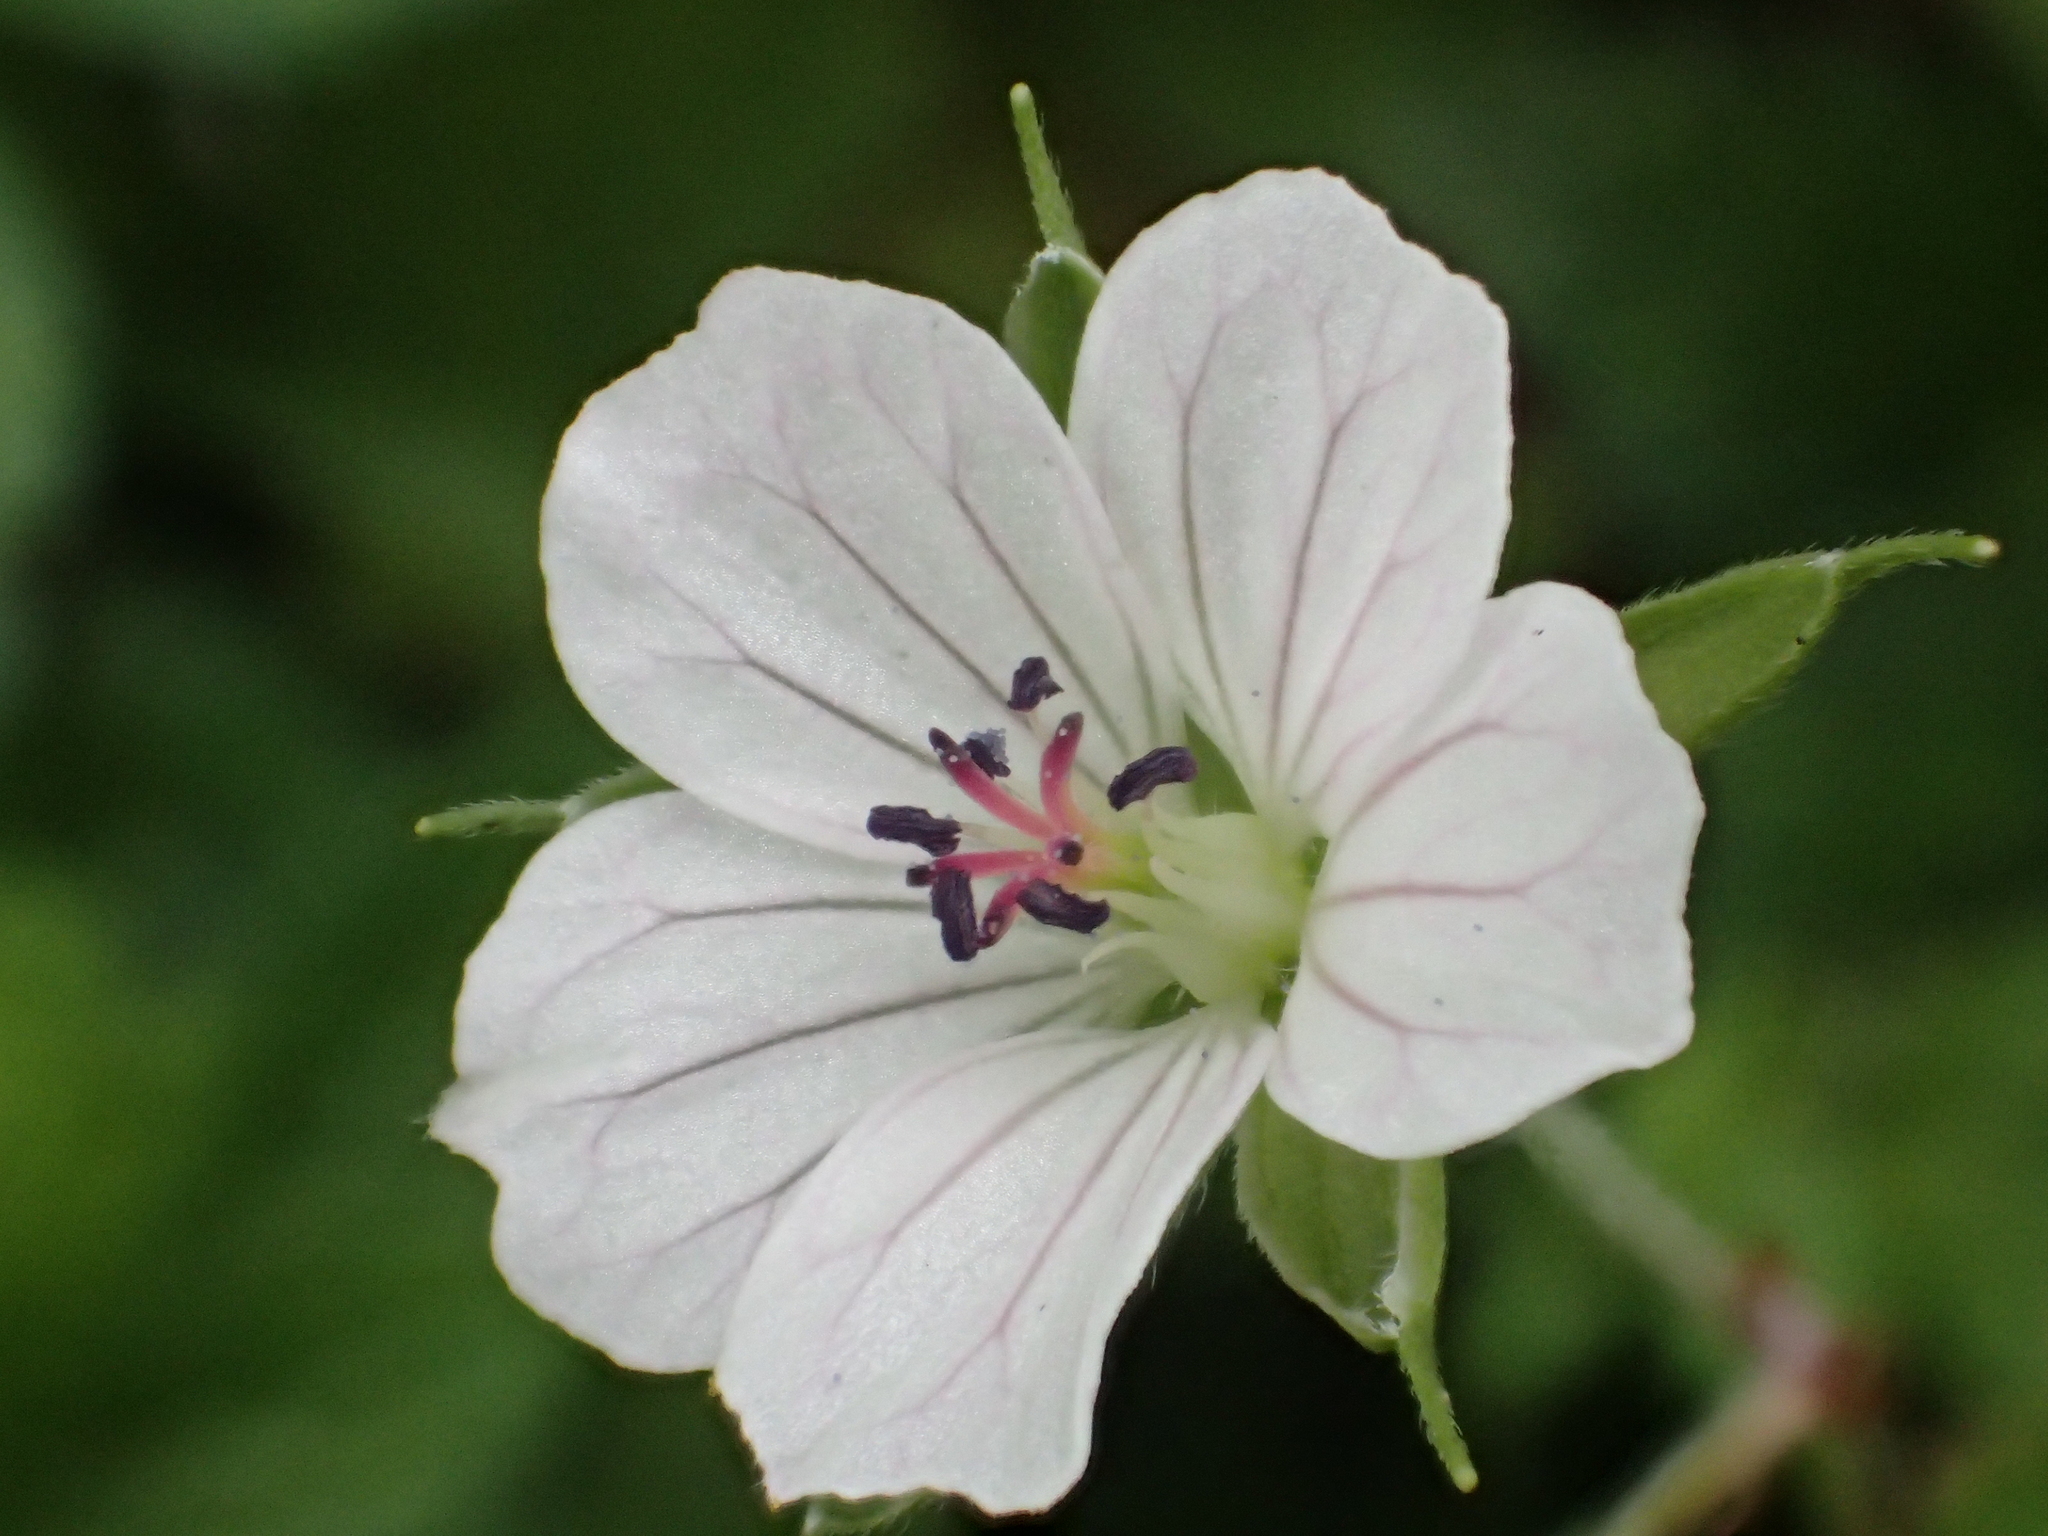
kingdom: Plantae
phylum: Tracheophyta
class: Magnoliopsida
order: Geraniales
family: Geraniaceae
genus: Geranium
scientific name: Geranium wilfordii
